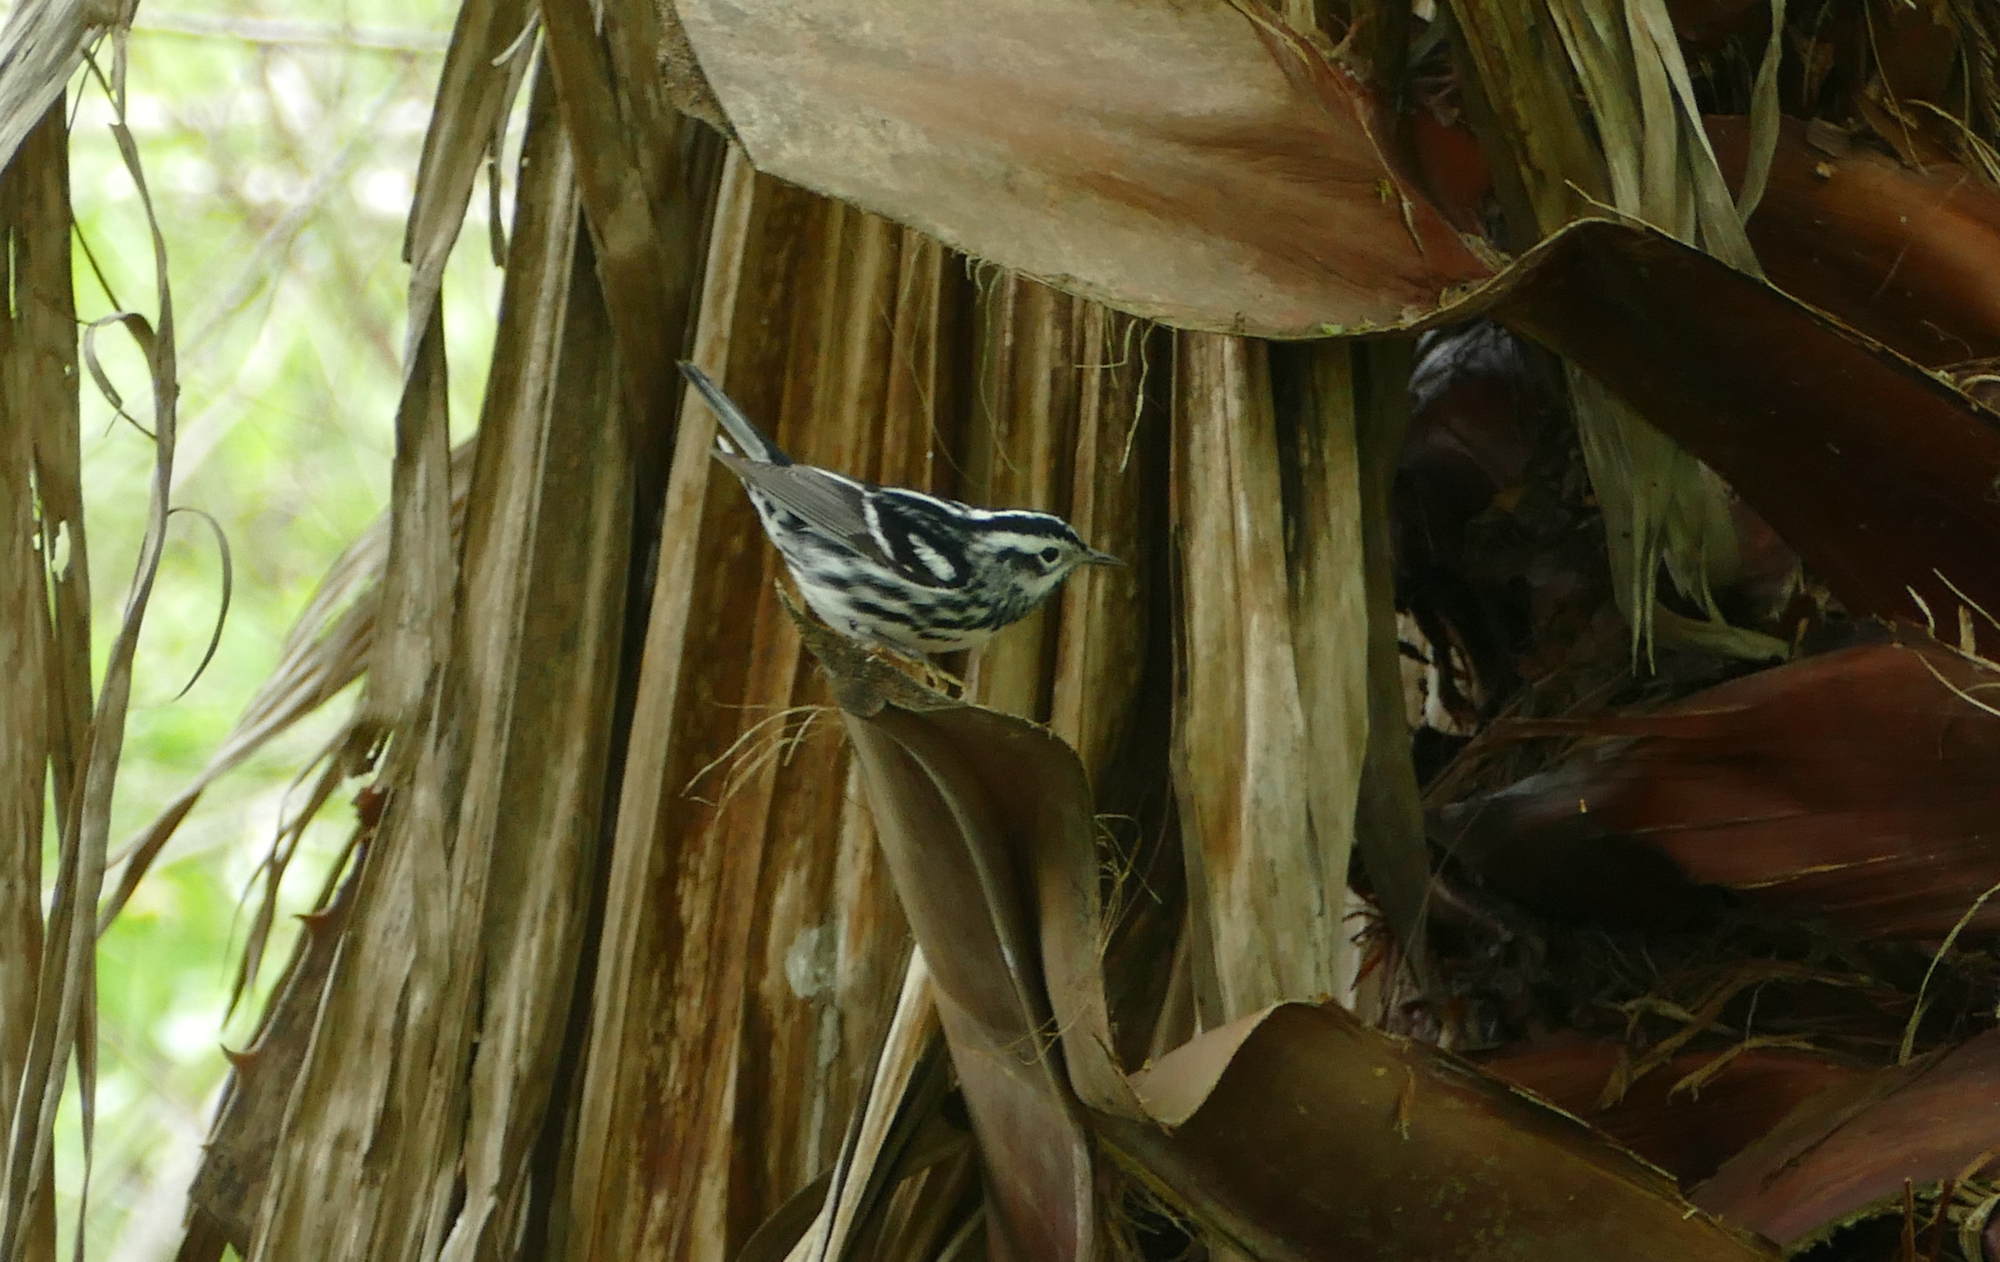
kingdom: Animalia
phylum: Chordata
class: Aves
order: Passeriformes
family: Parulidae
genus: Mniotilta
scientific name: Mniotilta varia
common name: Black-and-white warbler
